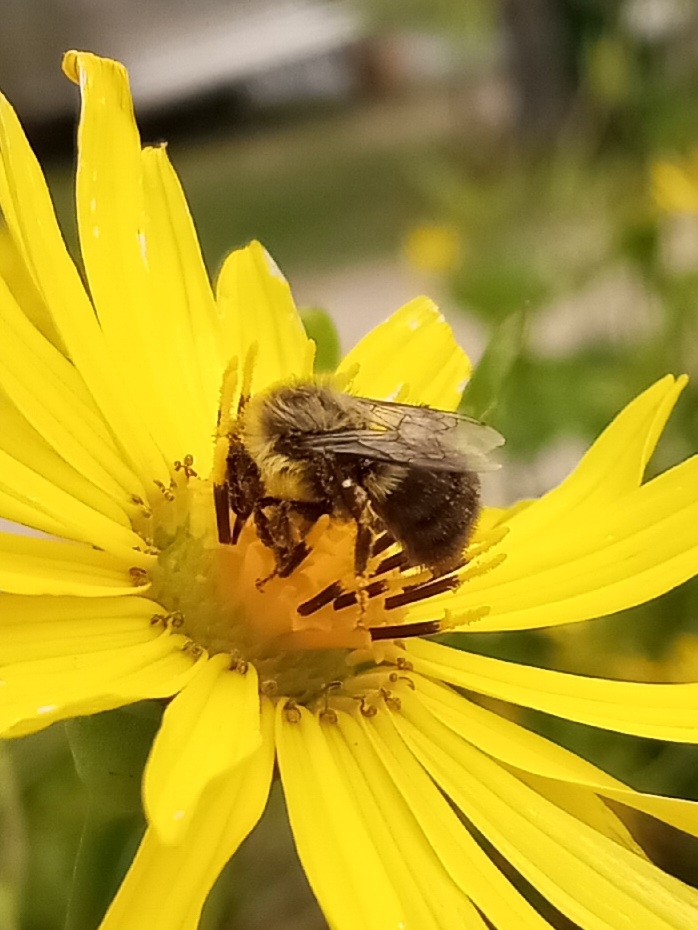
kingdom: Animalia
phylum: Arthropoda
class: Insecta
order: Hymenoptera
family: Apidae
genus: Bombus
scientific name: Bombus impatiens
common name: Common eastern bumble bee
